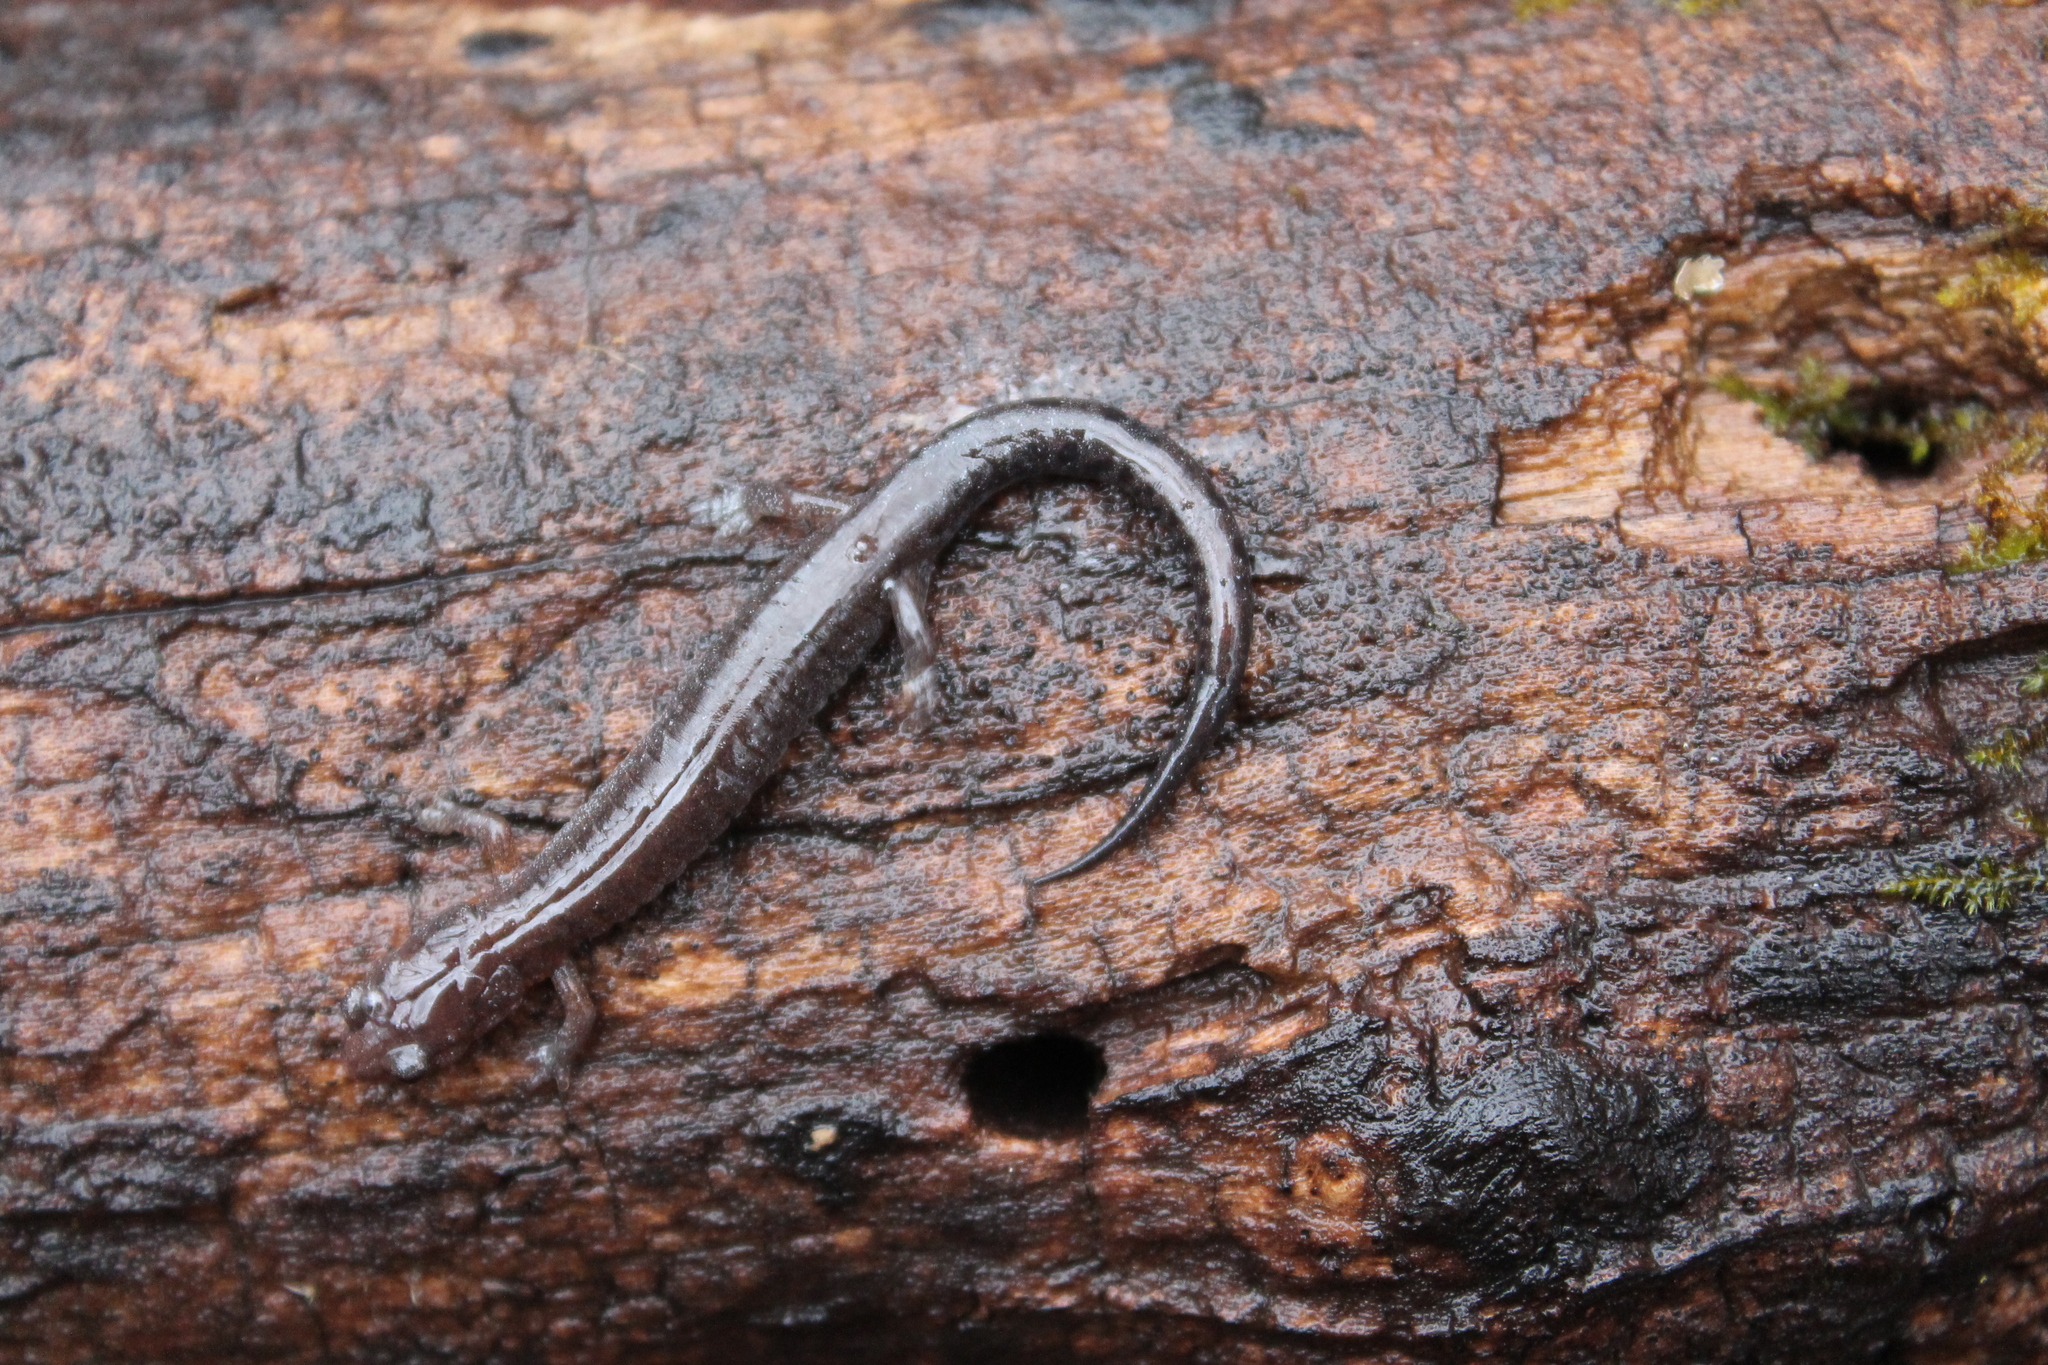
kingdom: Animalia
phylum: Chordata
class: Amphibia
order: Caudata
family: Plethodontidae
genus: Plethodon
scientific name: Plethodon dorsalis
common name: Northern zigzag salamander
